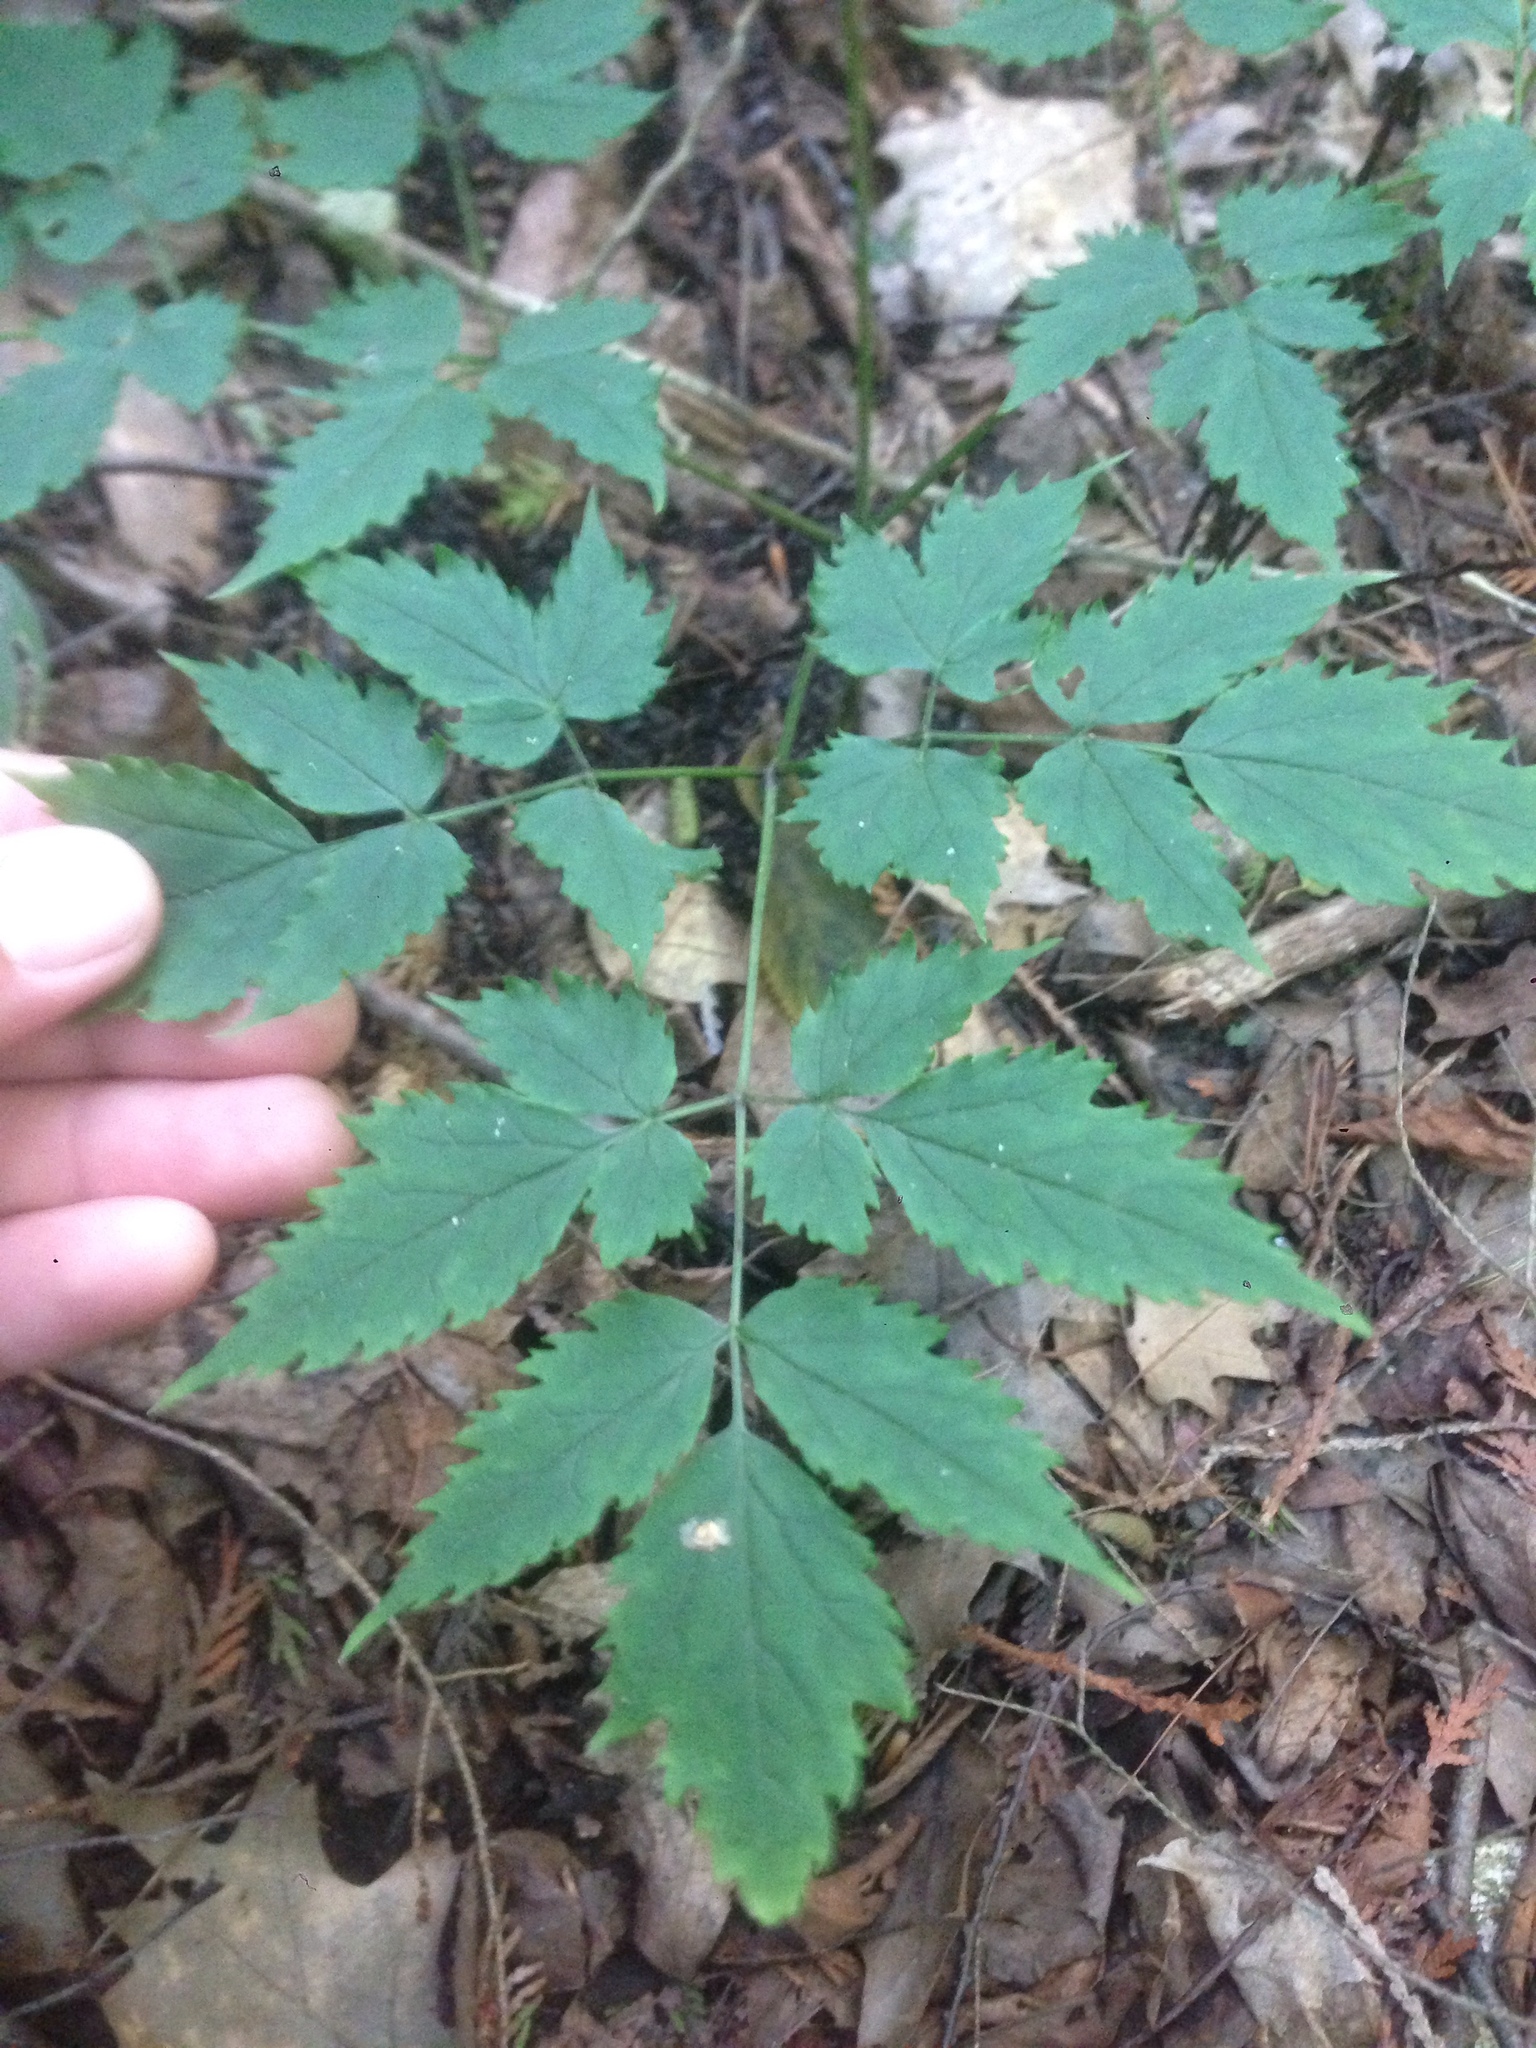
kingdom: Plantae
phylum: Tracheophyta
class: Magnoliopsida
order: Ranunculales
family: Ranunculaceae
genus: Actaea
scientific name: Actaea pachypoda
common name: Doll's-eyes
